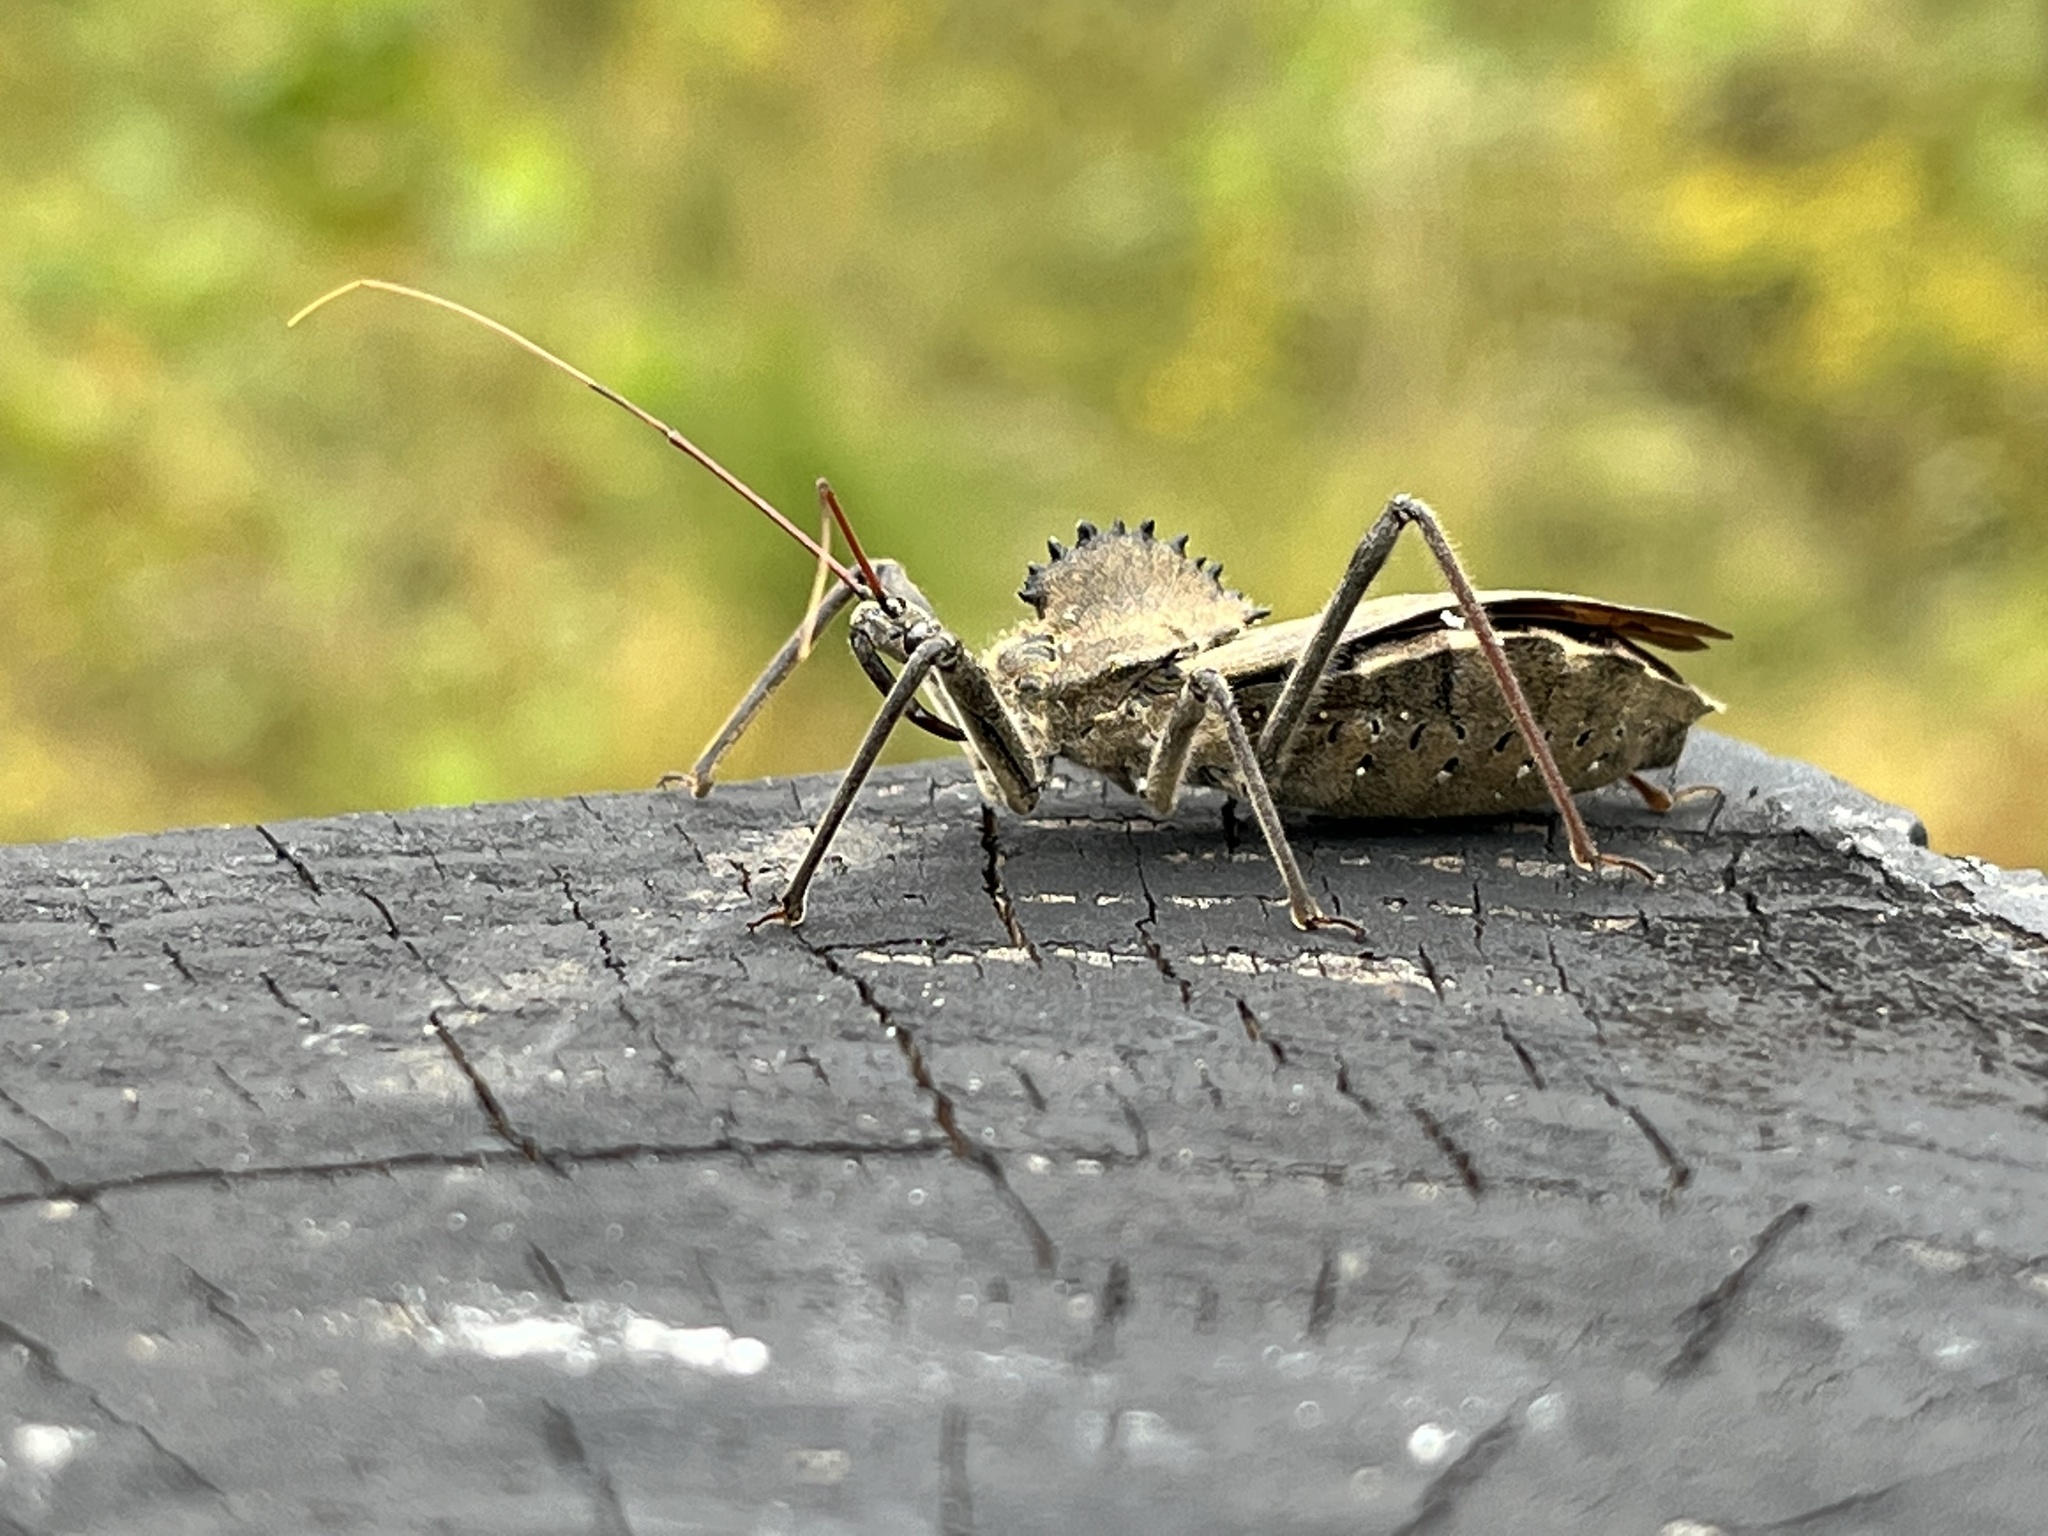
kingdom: Animalia
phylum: Arthropoda
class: Insecta
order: Hemiptera
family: Reduviidae
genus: Arilus
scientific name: Arilus cristatus
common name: North american wheel bug
